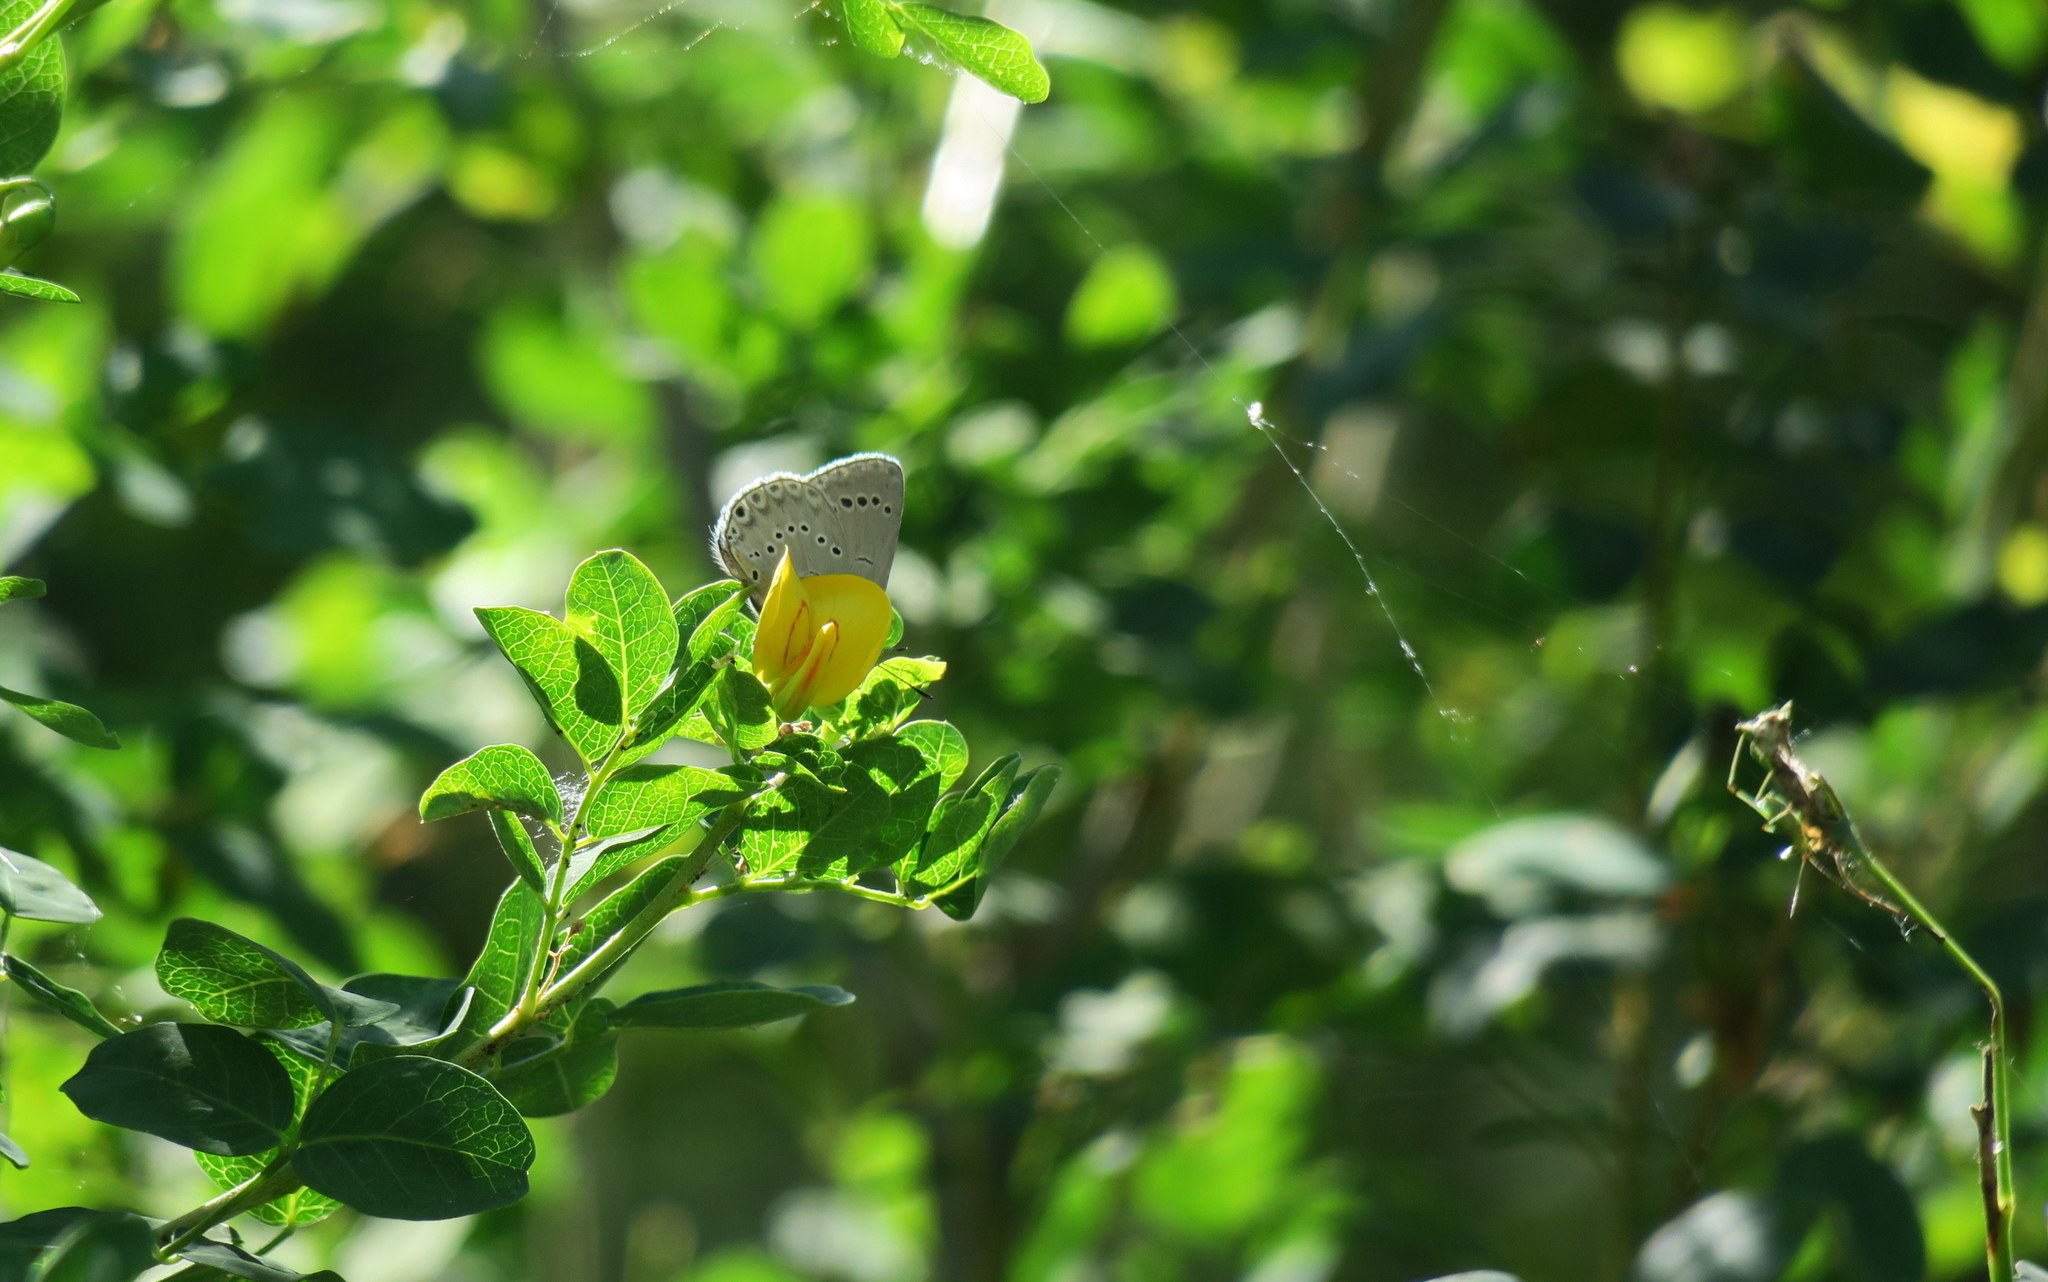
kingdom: Animalia
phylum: Arthropoda
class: Insecta
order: Lepidoptera
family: Lycaenidae
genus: Iolana
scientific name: Iolana iolas
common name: Iolas blue
